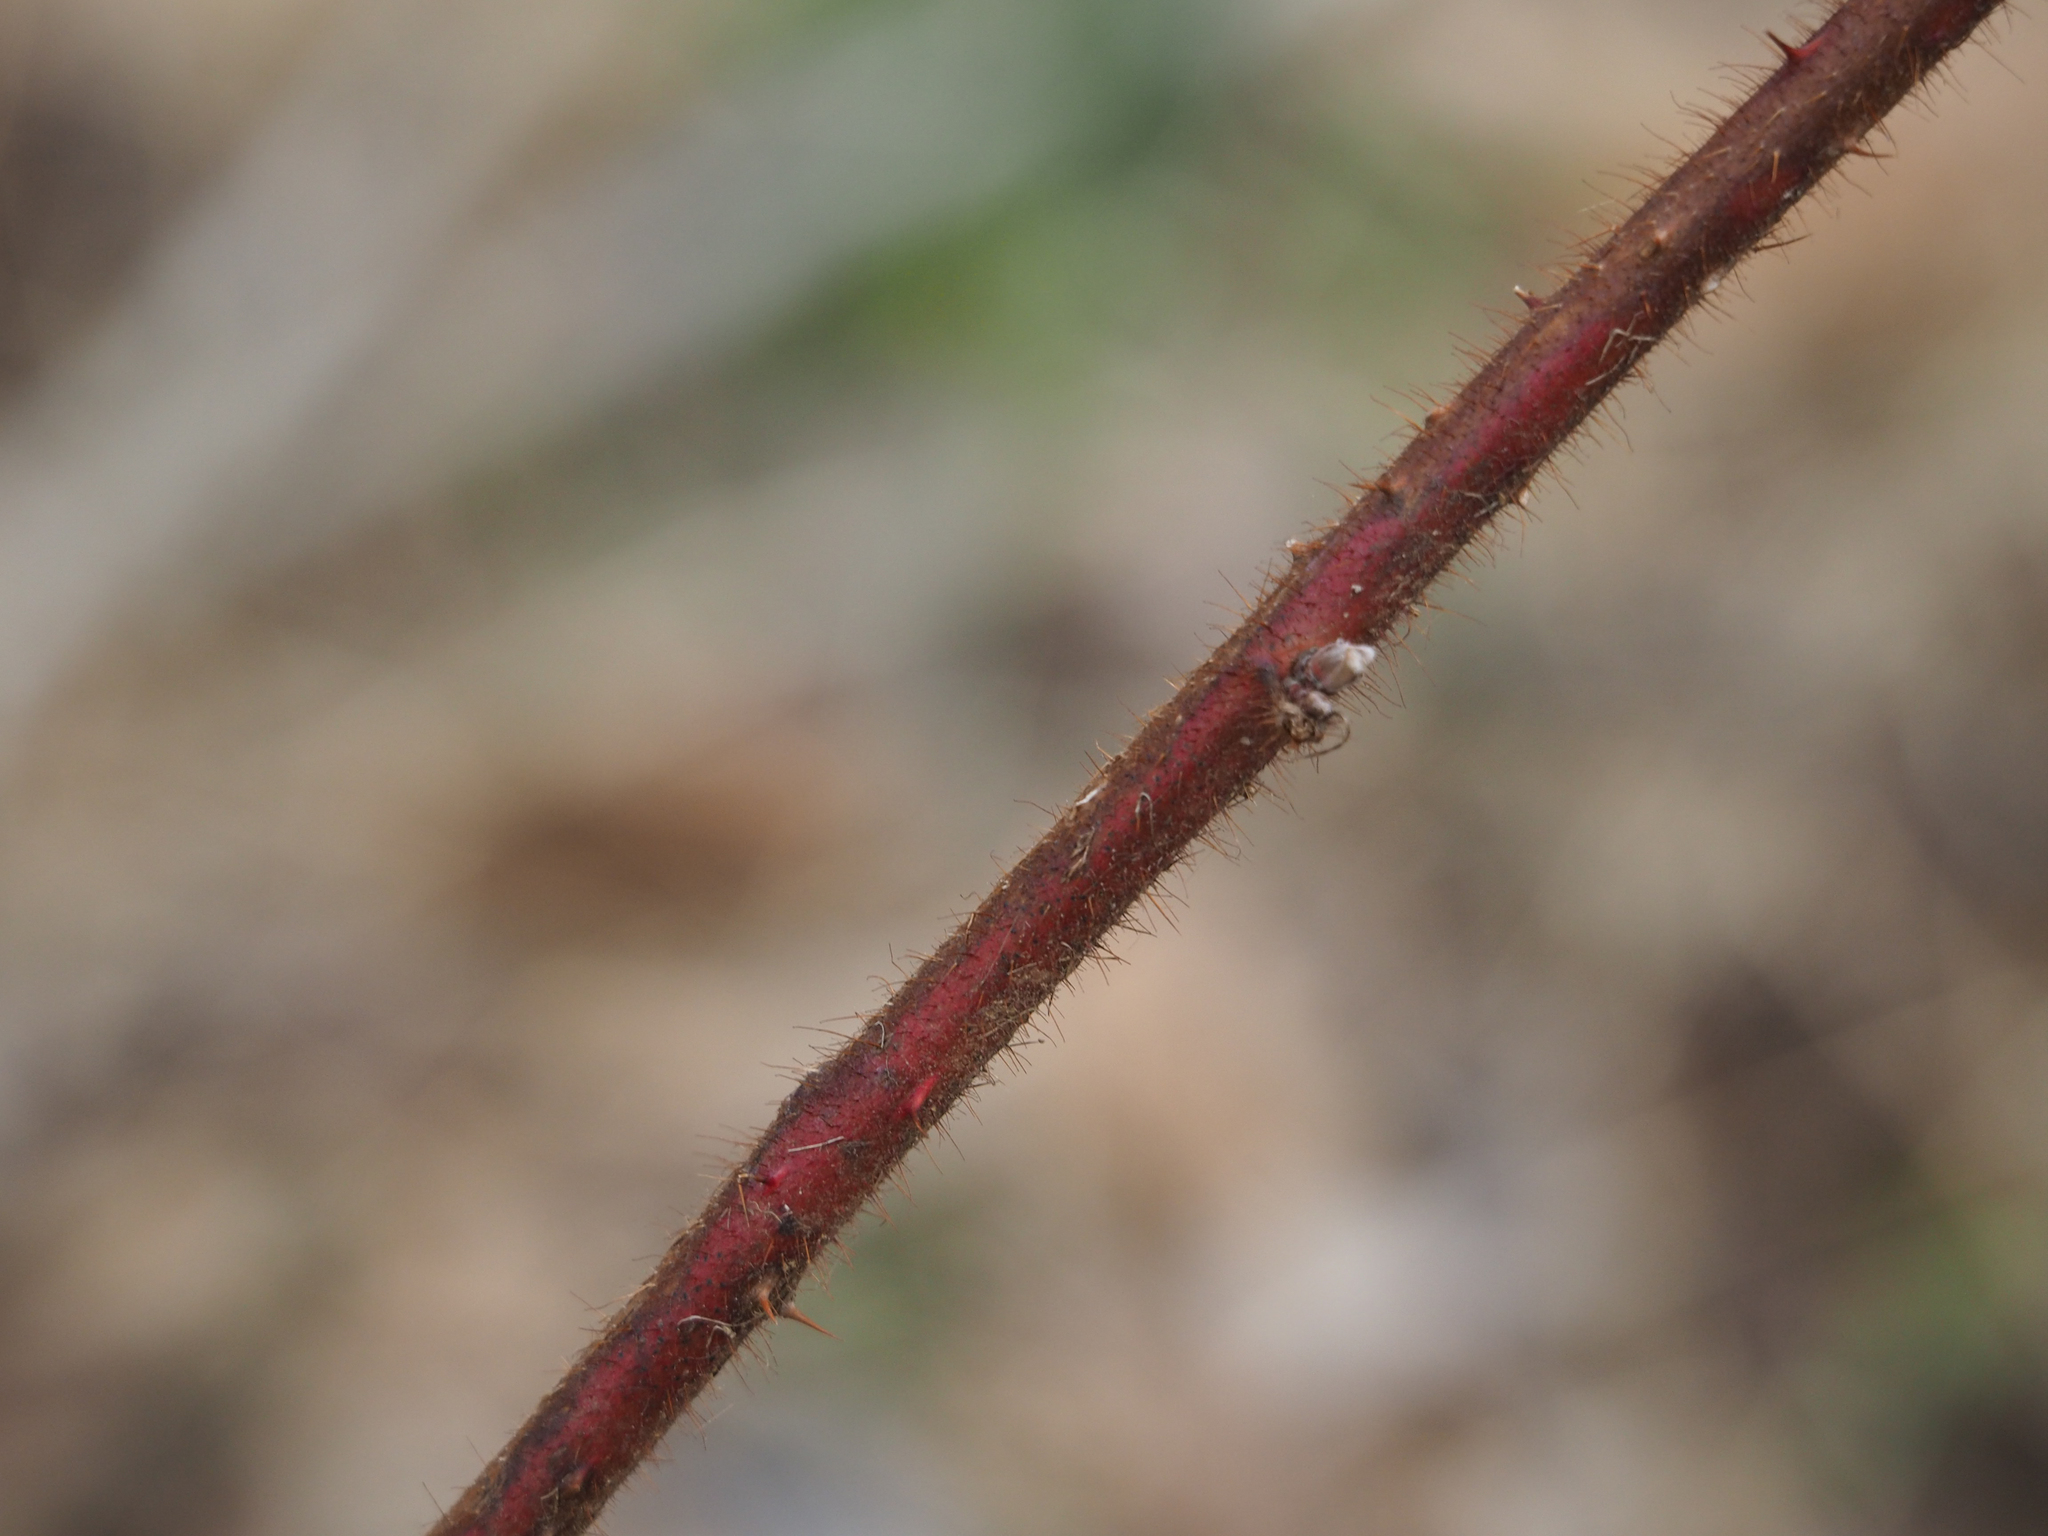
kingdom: Plantae
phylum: Tracheophyta
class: Magnoliopsida
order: Rosales
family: Rosaceae
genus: Rubus
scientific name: Rubus phoenicolasius
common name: Japanese wineberry
